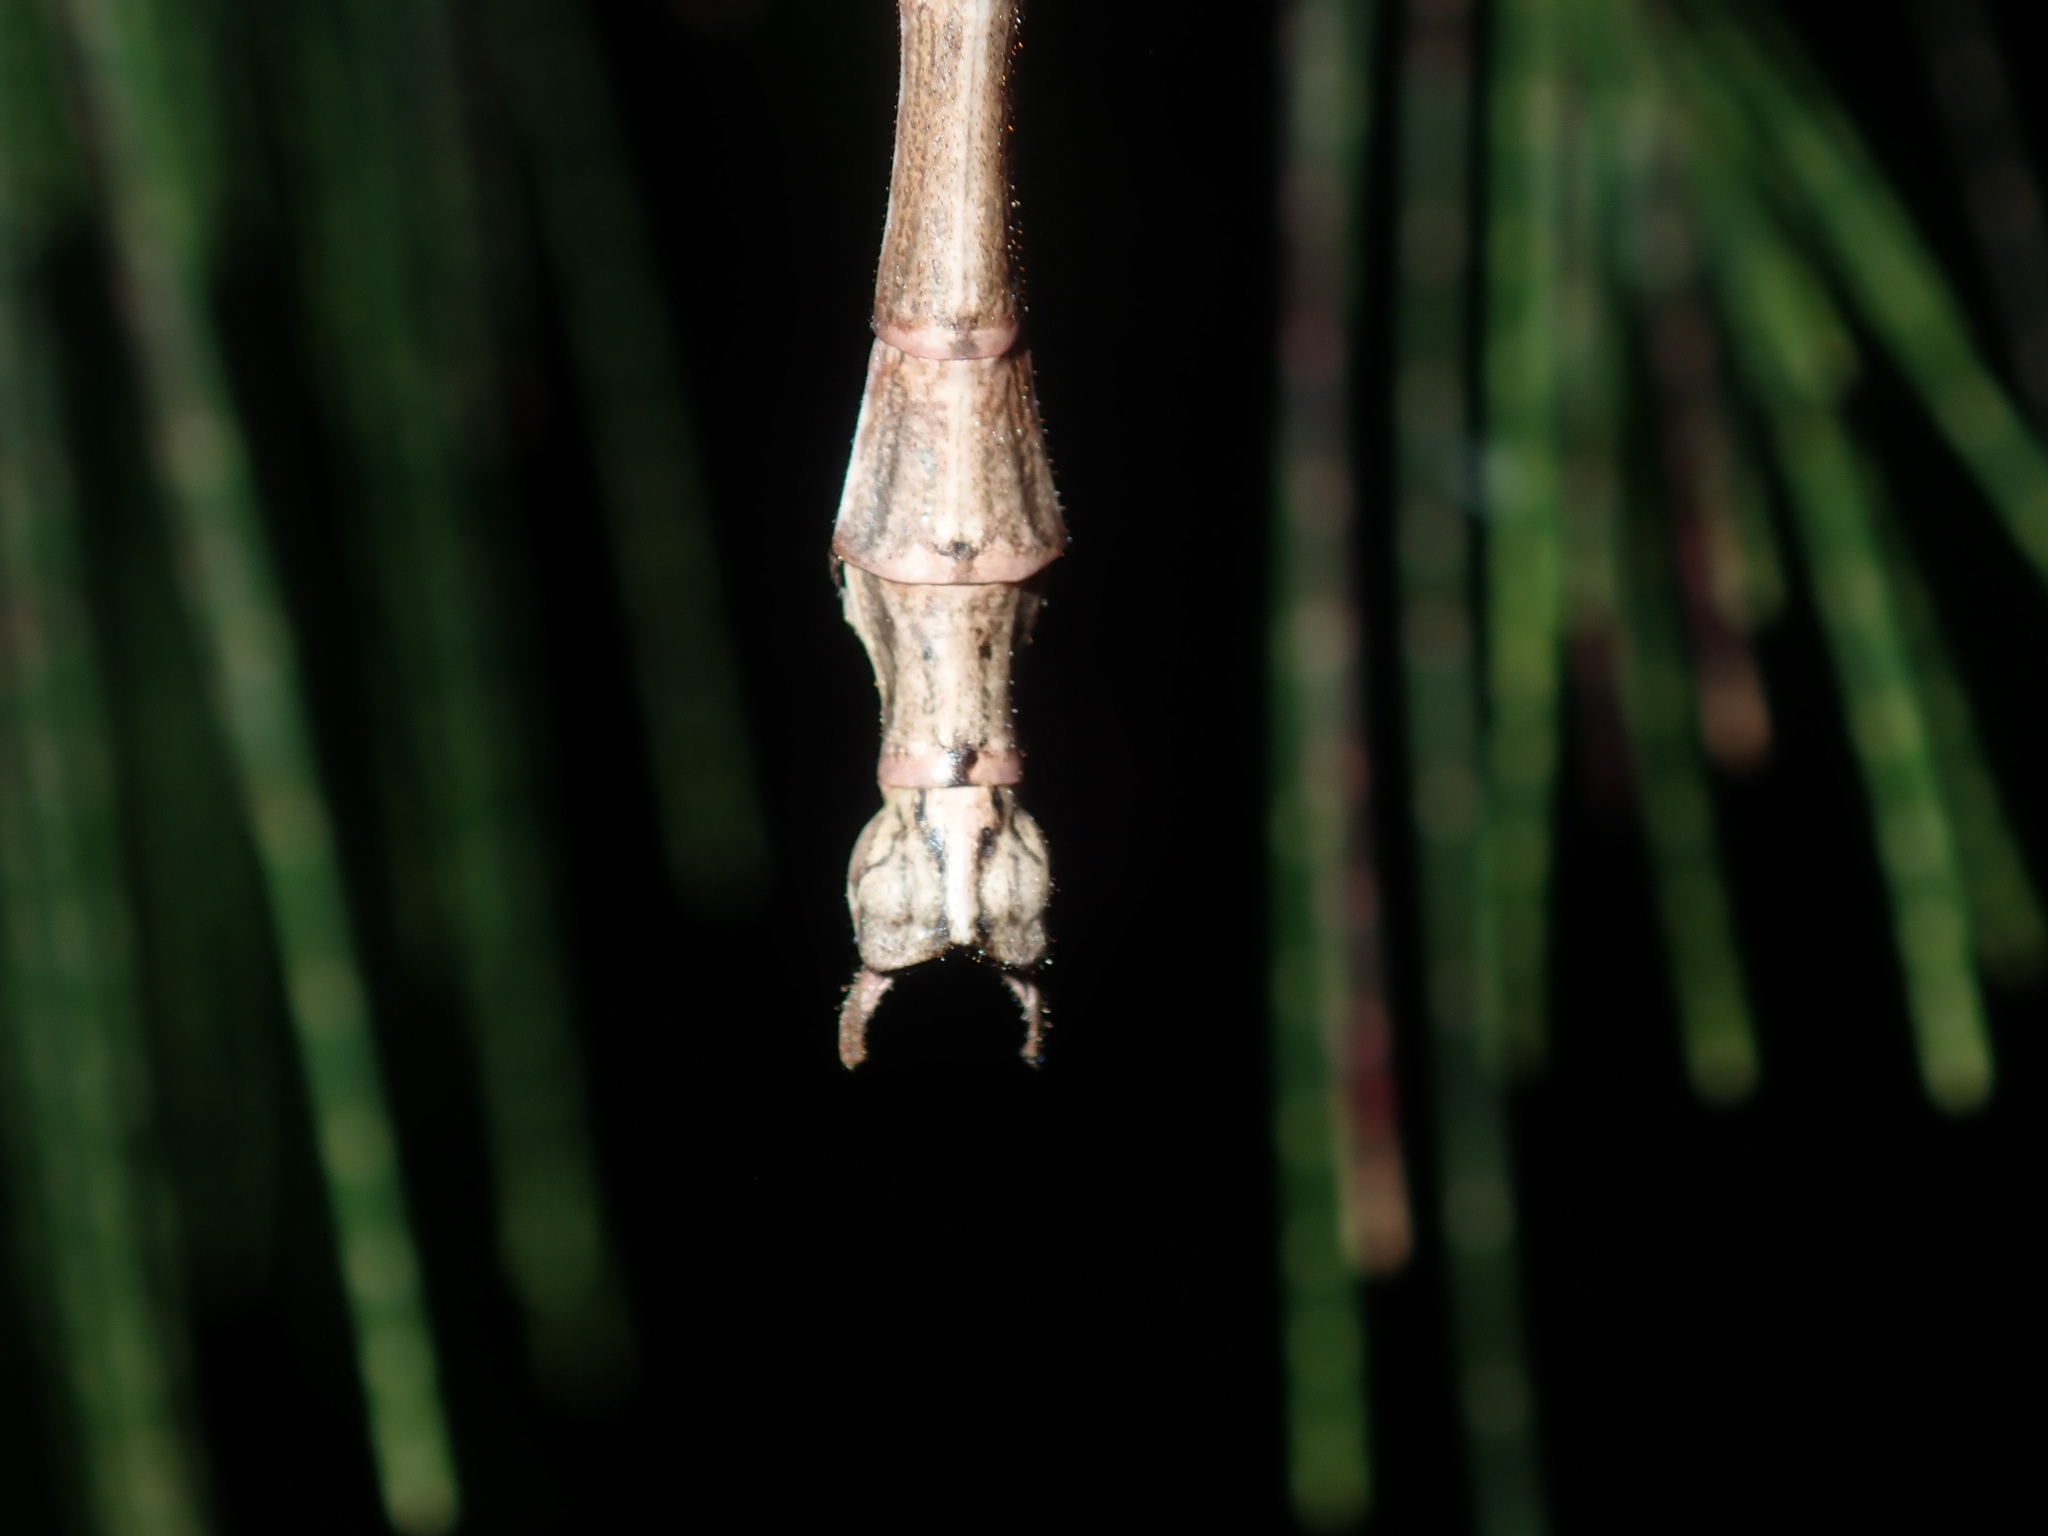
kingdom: Animalia
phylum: Arthropoda
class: Insecta
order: Phasmida
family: Phasmatidae
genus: Anchiale
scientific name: Anchiale austrotessulata
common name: Tessellated stick-insect
